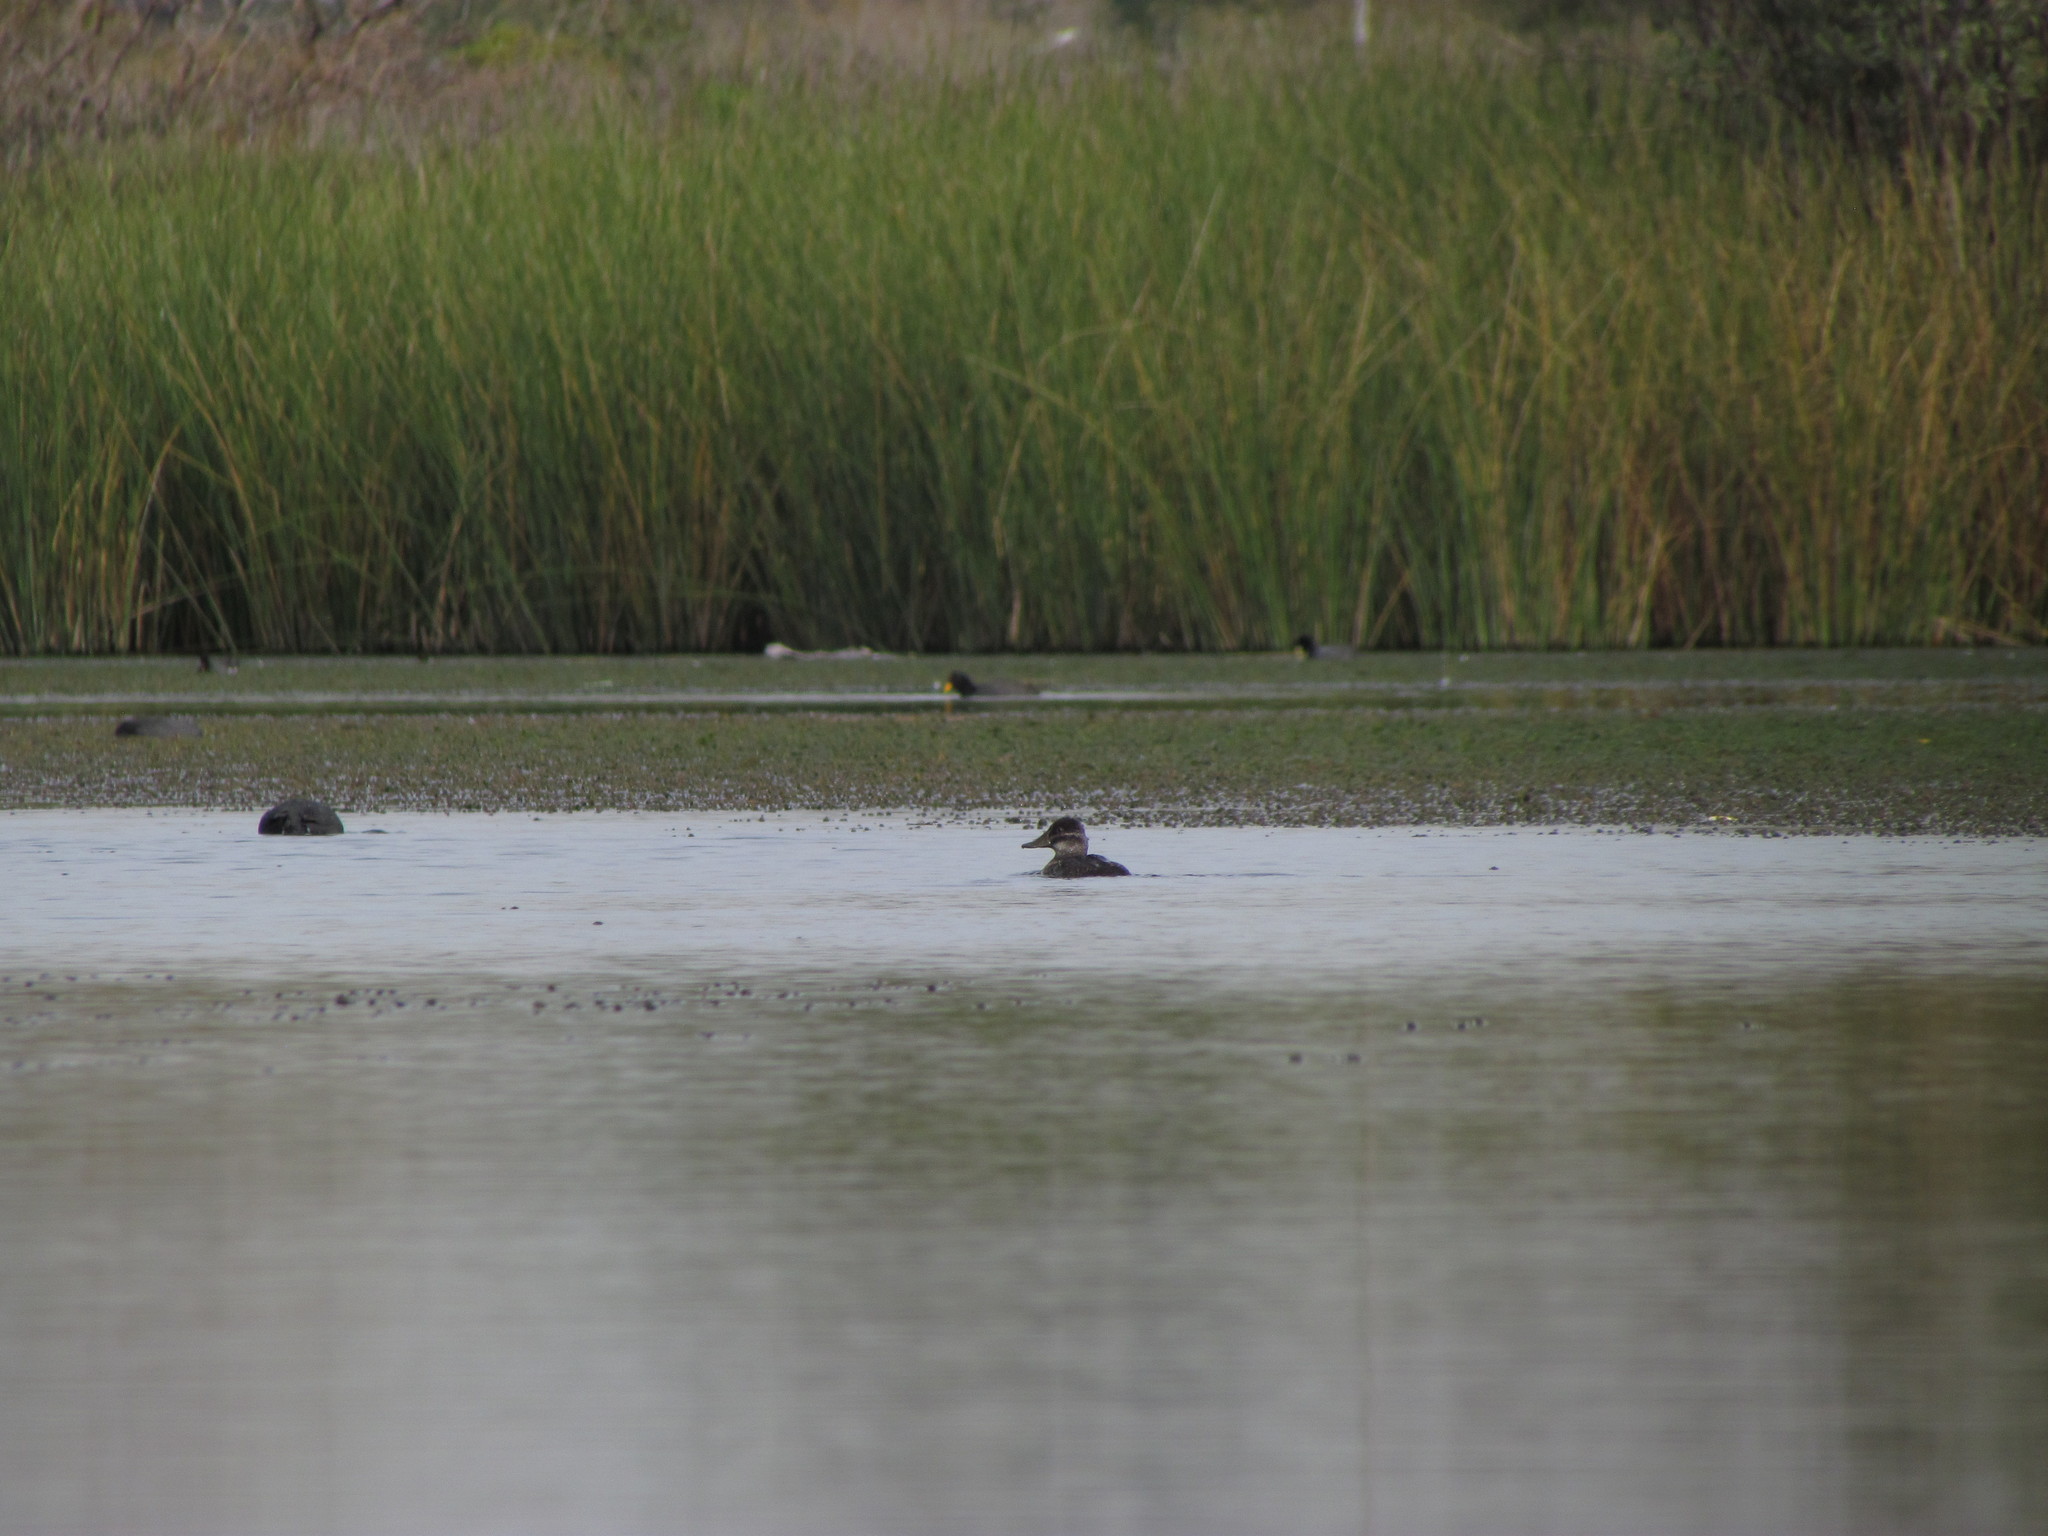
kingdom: Animalia
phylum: Chordata
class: Aves
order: Anseriformes
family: Anatidae
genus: Oxyura
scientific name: Oxyura vittata
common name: Lake duck
